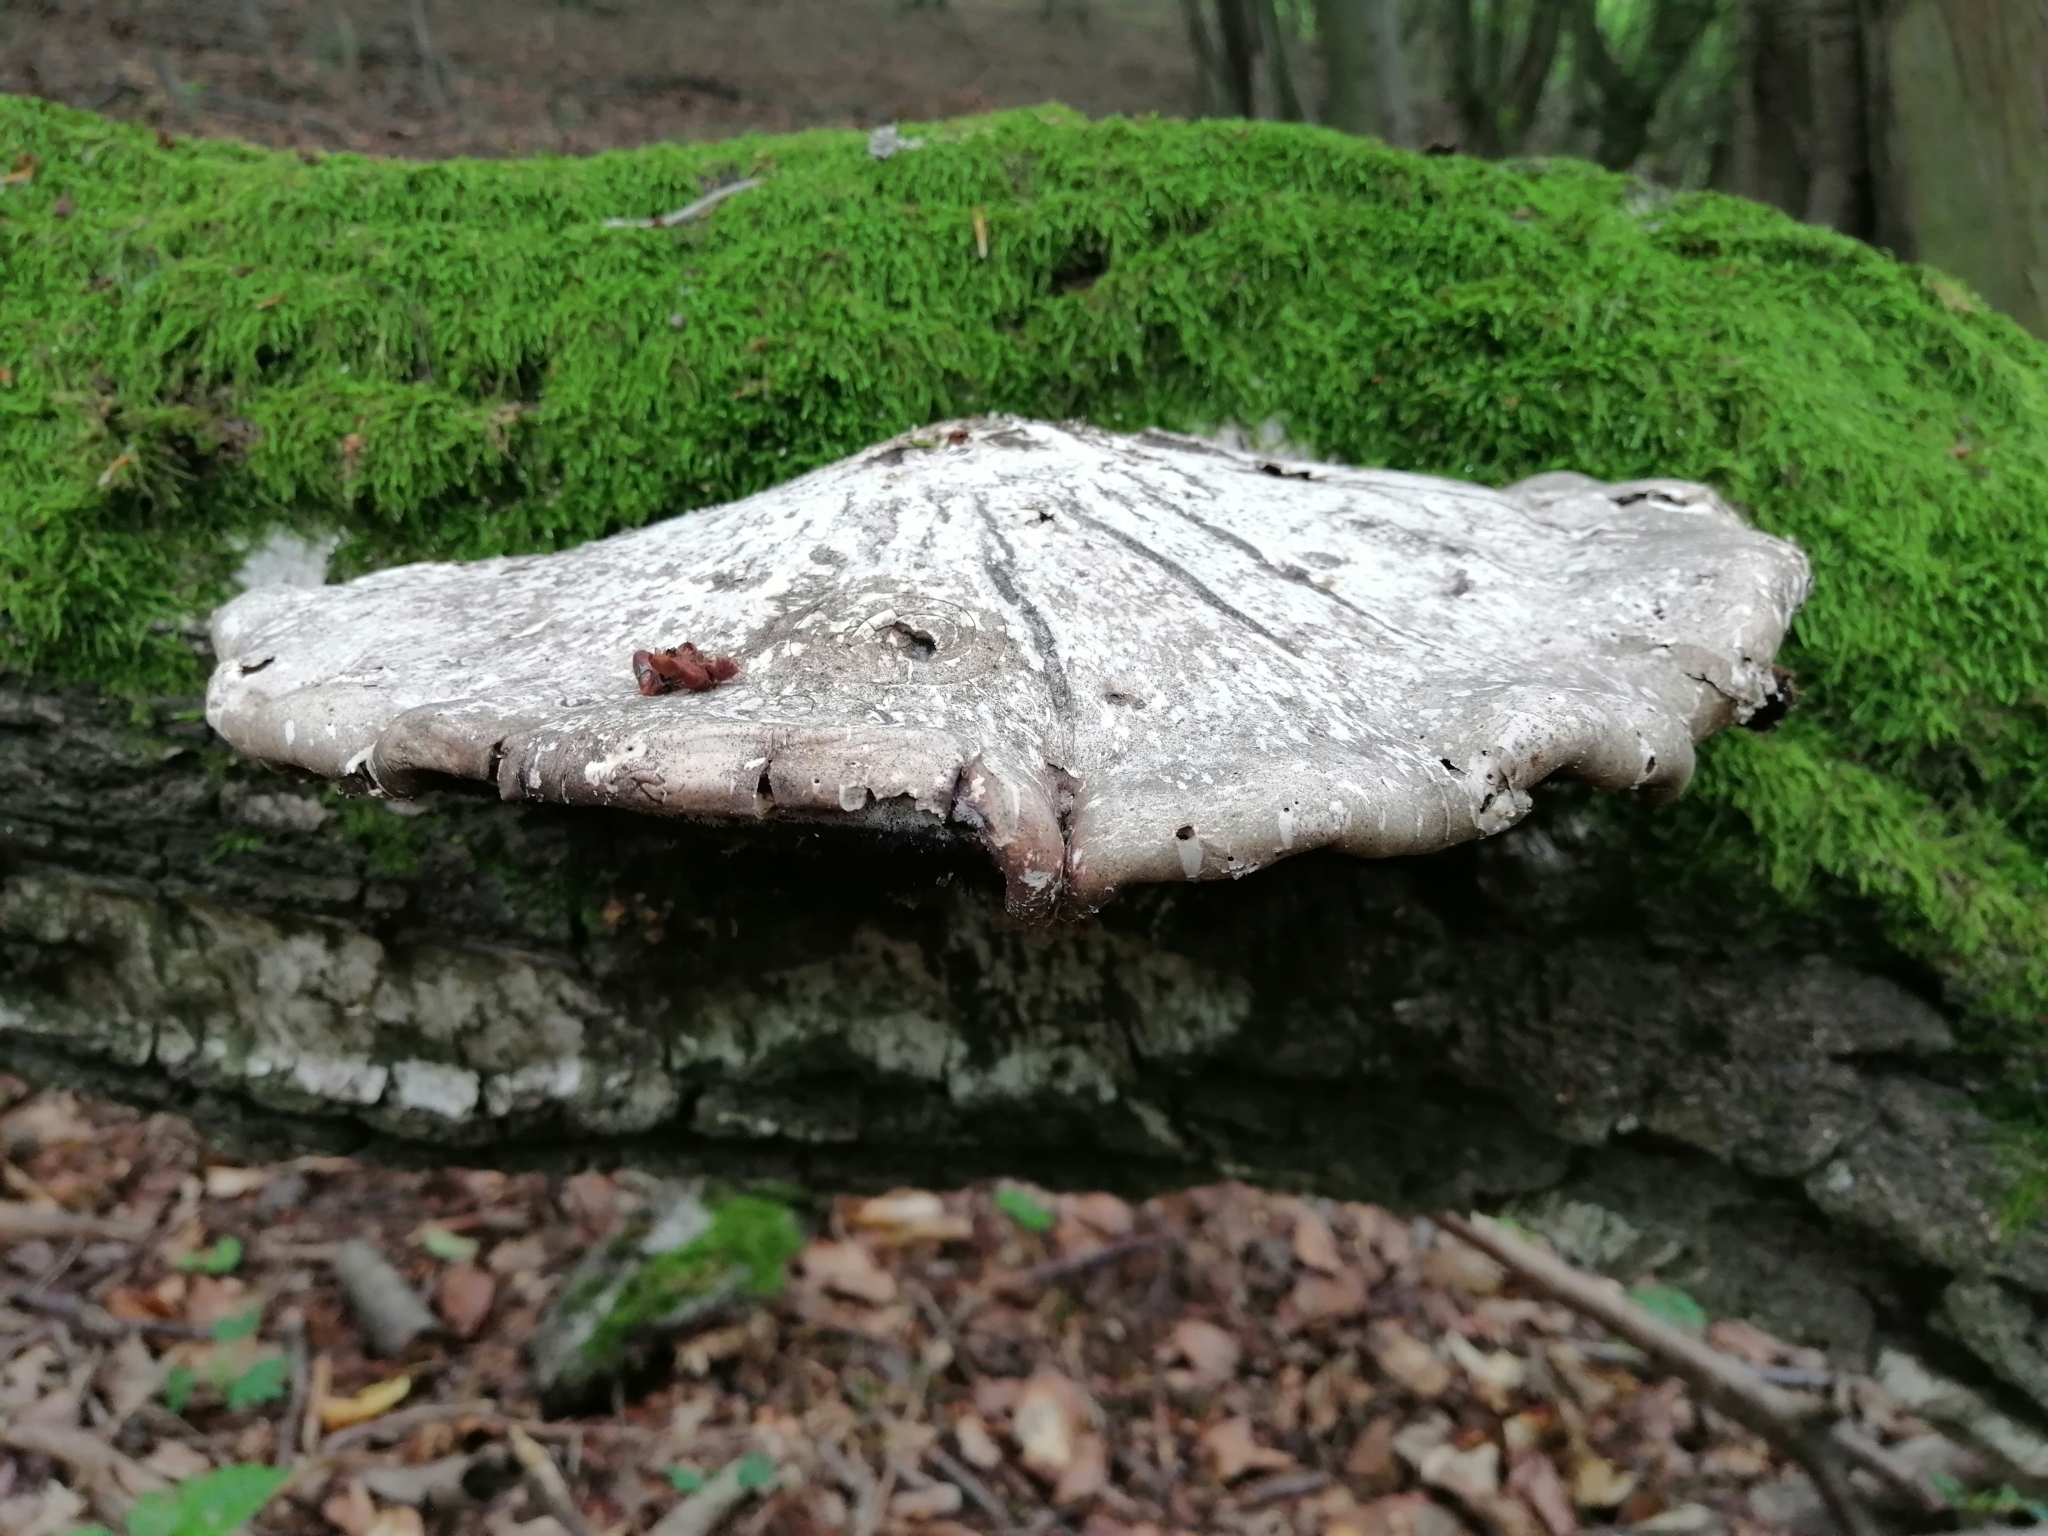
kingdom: Fungi
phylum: Basidiomycota
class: Agaricomycetes
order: Polyporales
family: Fomitopsidaceae
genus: Fomitopsis
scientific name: Fomitopsis betulina
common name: Birch polypore
